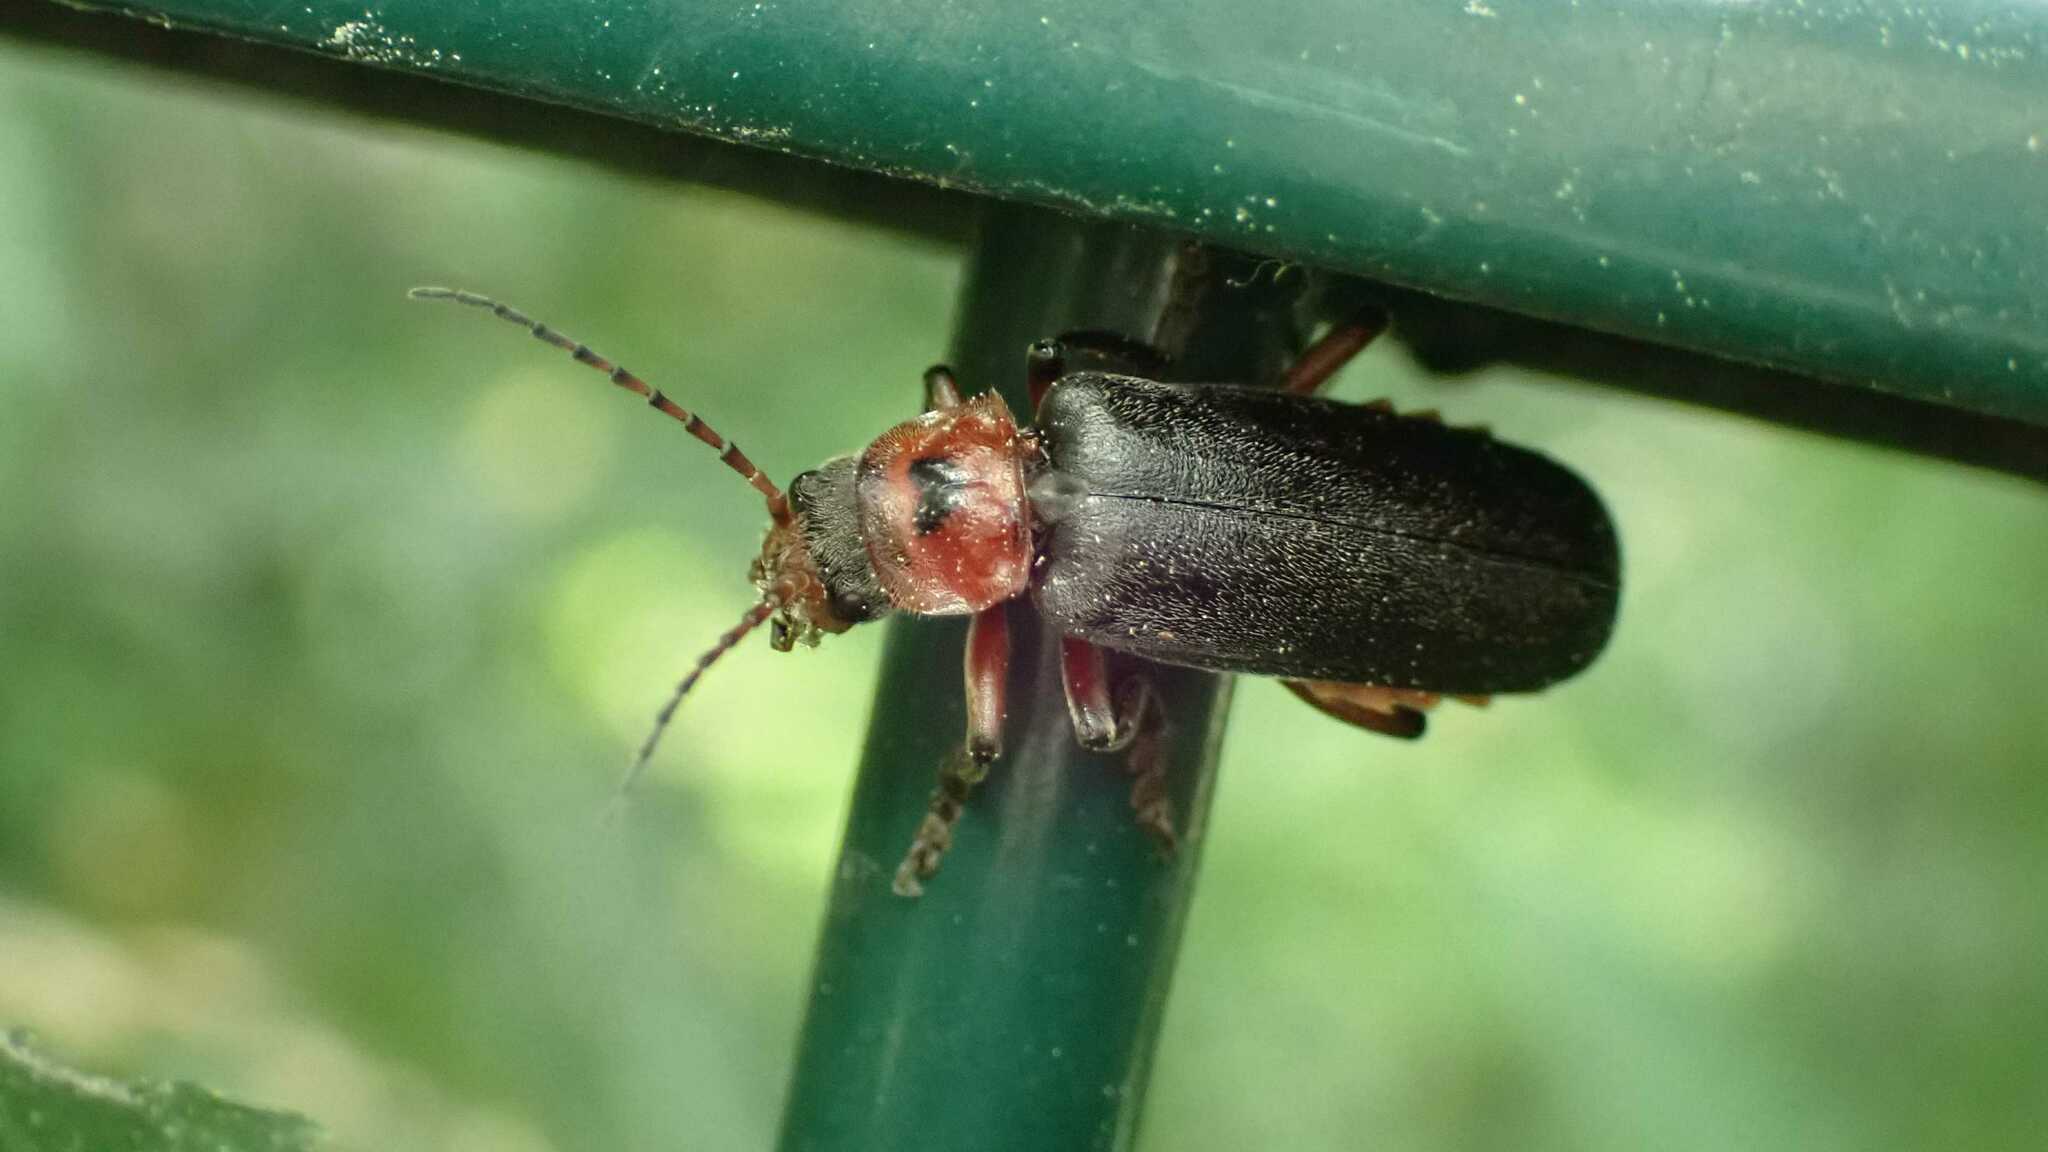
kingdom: Animalia
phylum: Arthropoda
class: Insecta
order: Coleoptera
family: Cantharidae
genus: Cantharis
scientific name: Cantharis rustica
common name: Soldier beetle
